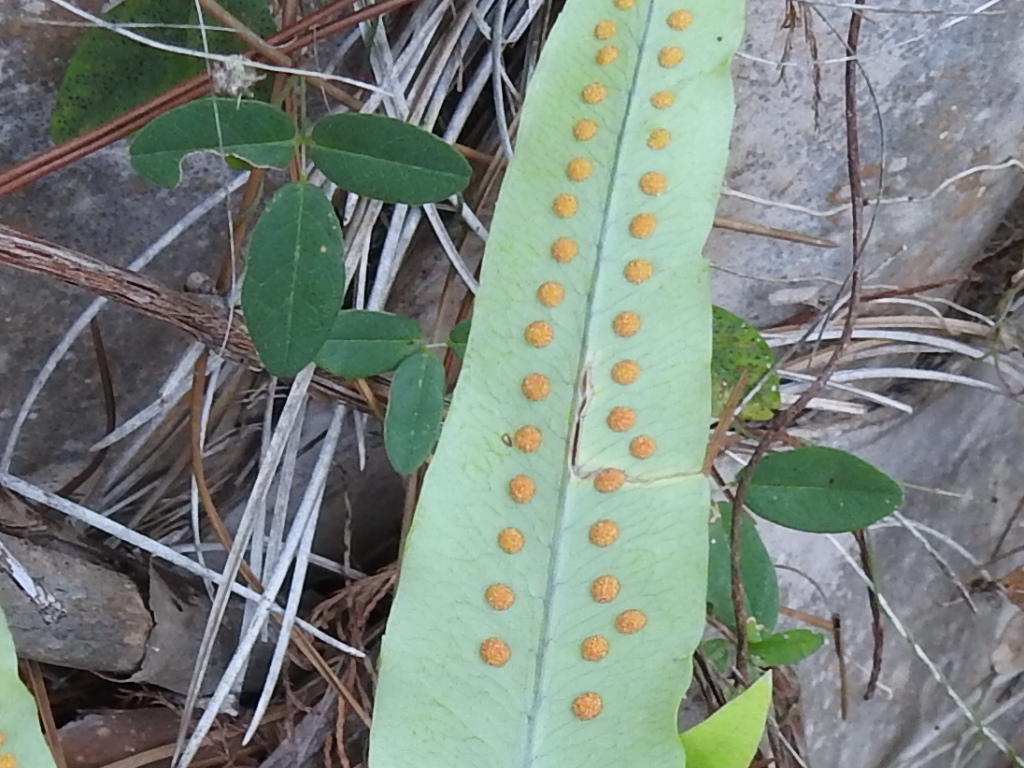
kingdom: Plantae
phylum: Tracheophyta
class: Polypodiopsida
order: Polypodiales
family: Polypodiaceae
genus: Phlebodium
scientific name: Phlebodium aureum
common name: Gold-foot fern
